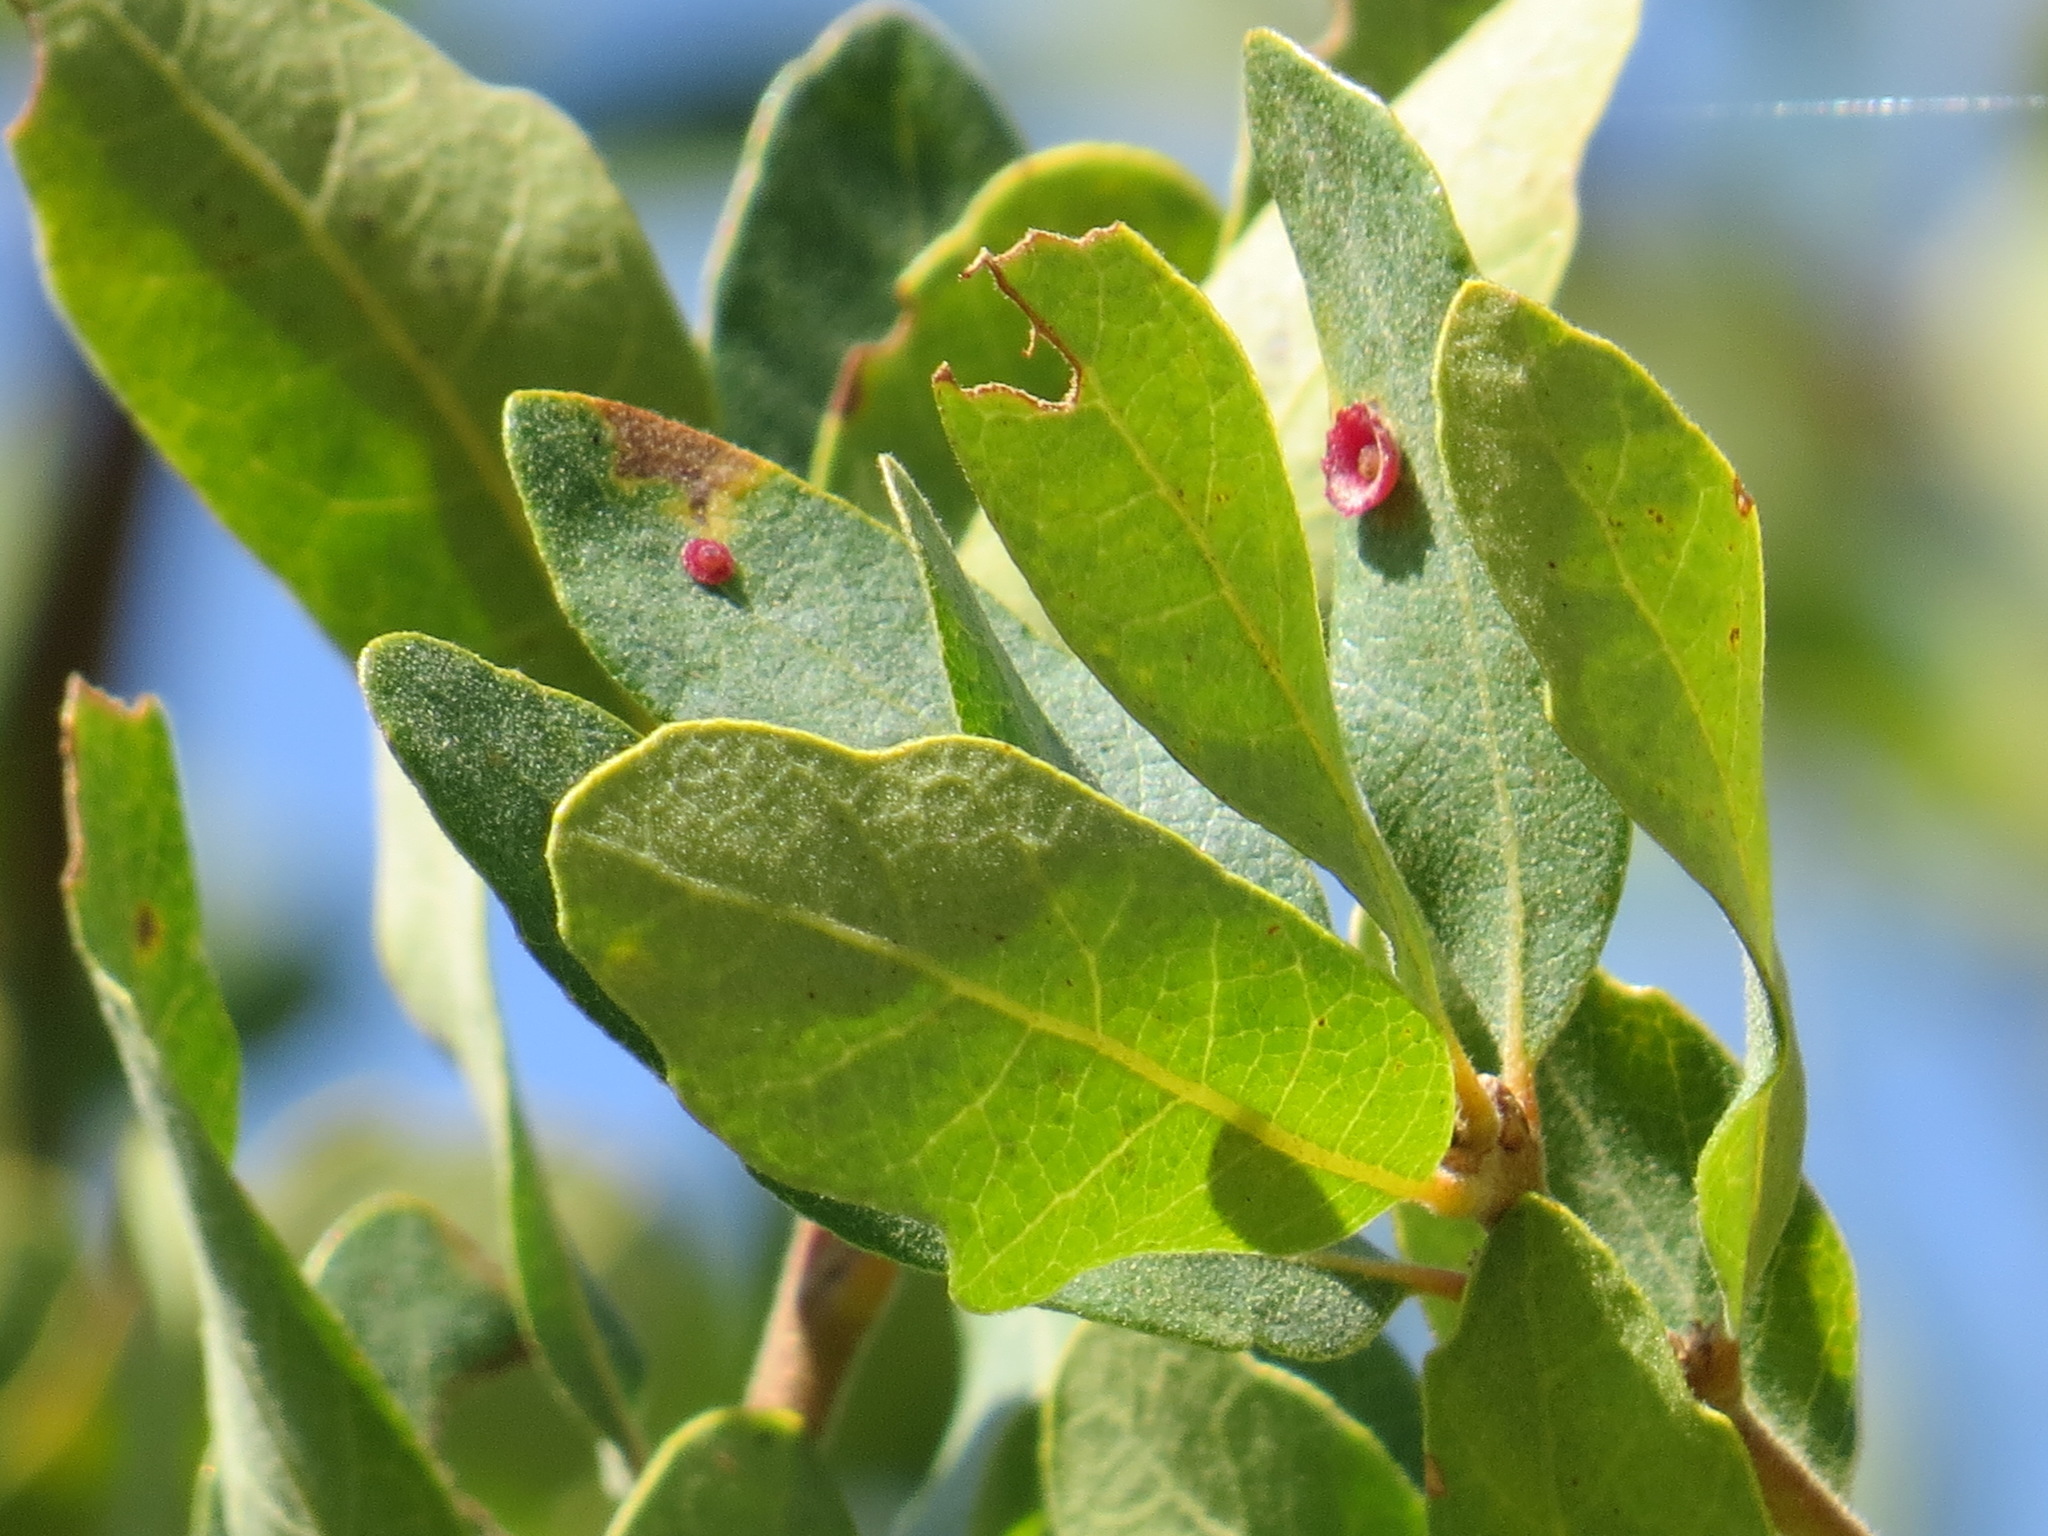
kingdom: Animalia
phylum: Arthropoda
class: Insecta
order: Hymenoptera
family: Cynipidae
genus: Andricus
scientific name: Andricus
